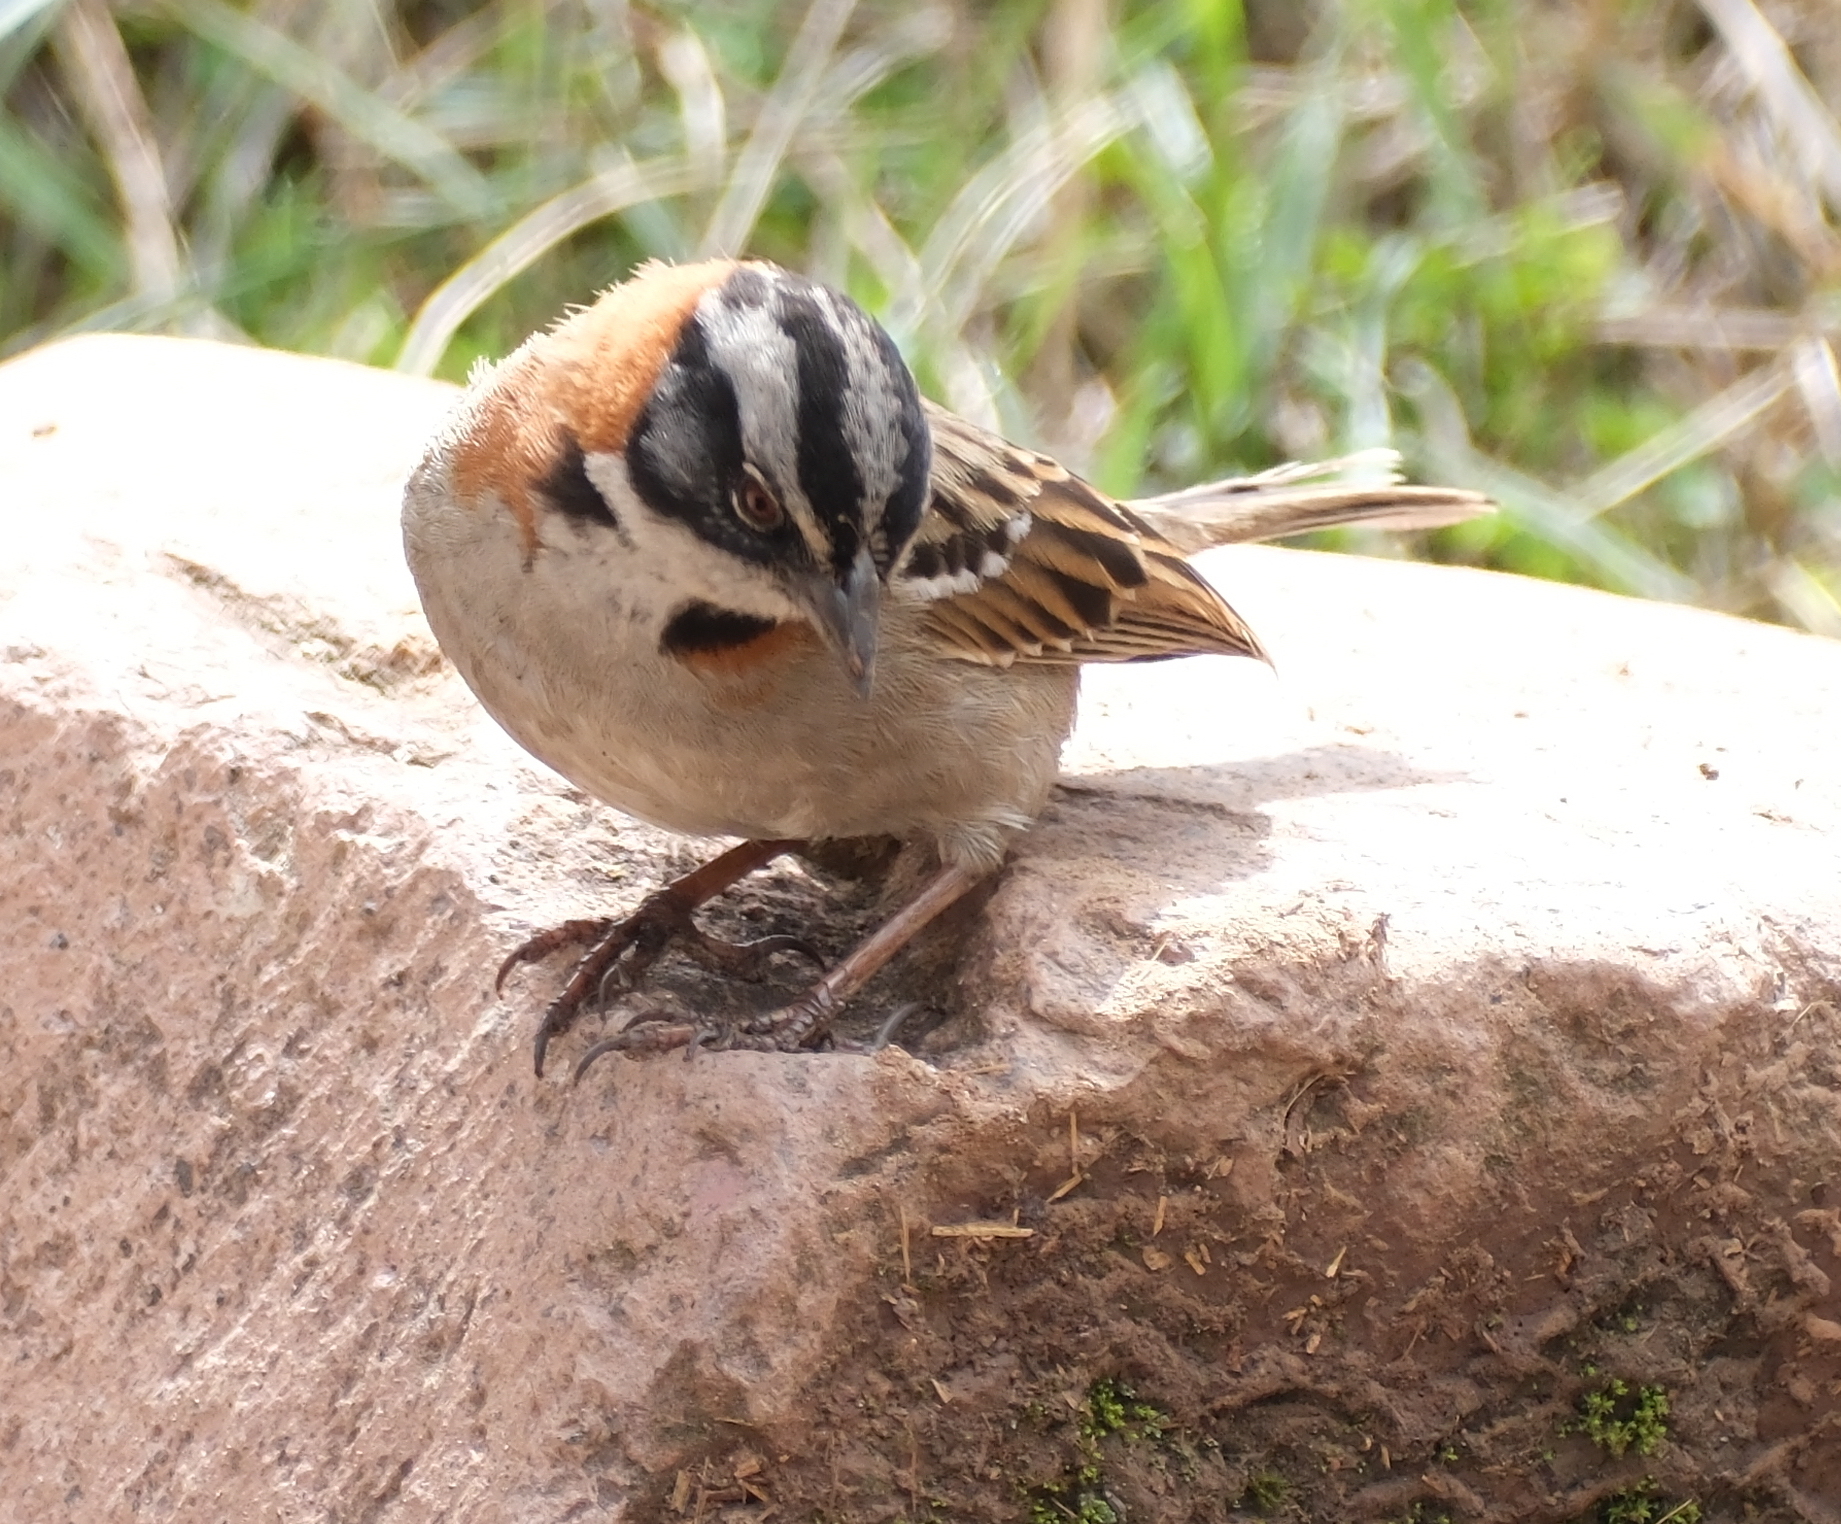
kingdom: Animalia
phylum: Chordata
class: Aves
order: Passeriformes
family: Passerellidae
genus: Zonotrichia
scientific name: Zonotrichia capensis
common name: Rufous-collared sparrow
